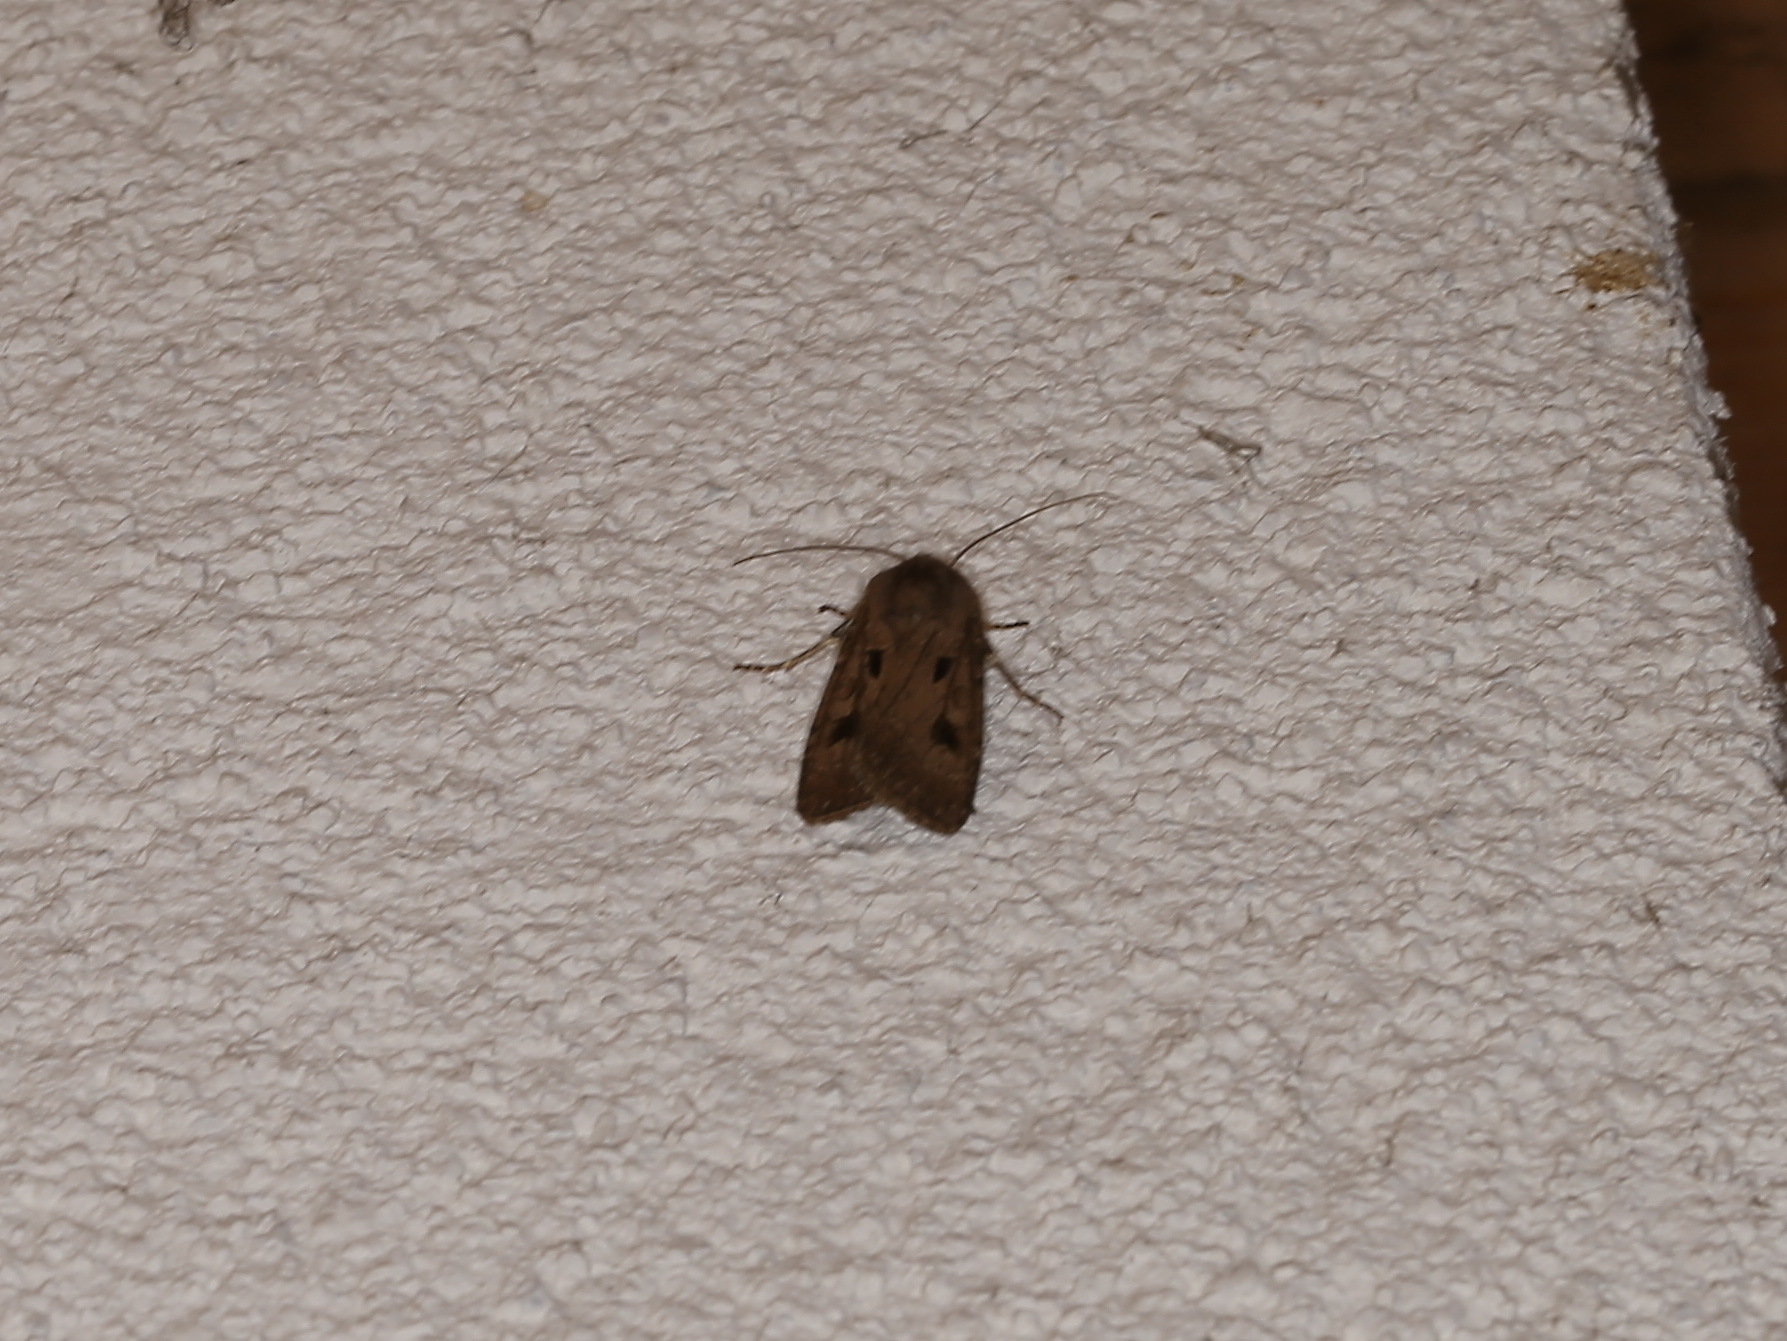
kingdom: Animalia
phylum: Arthropoda
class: Insecta
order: Lepidoptera
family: Noctuidae
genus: Agrotis
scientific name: Agrotis exclamationis
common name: Heart and dart
